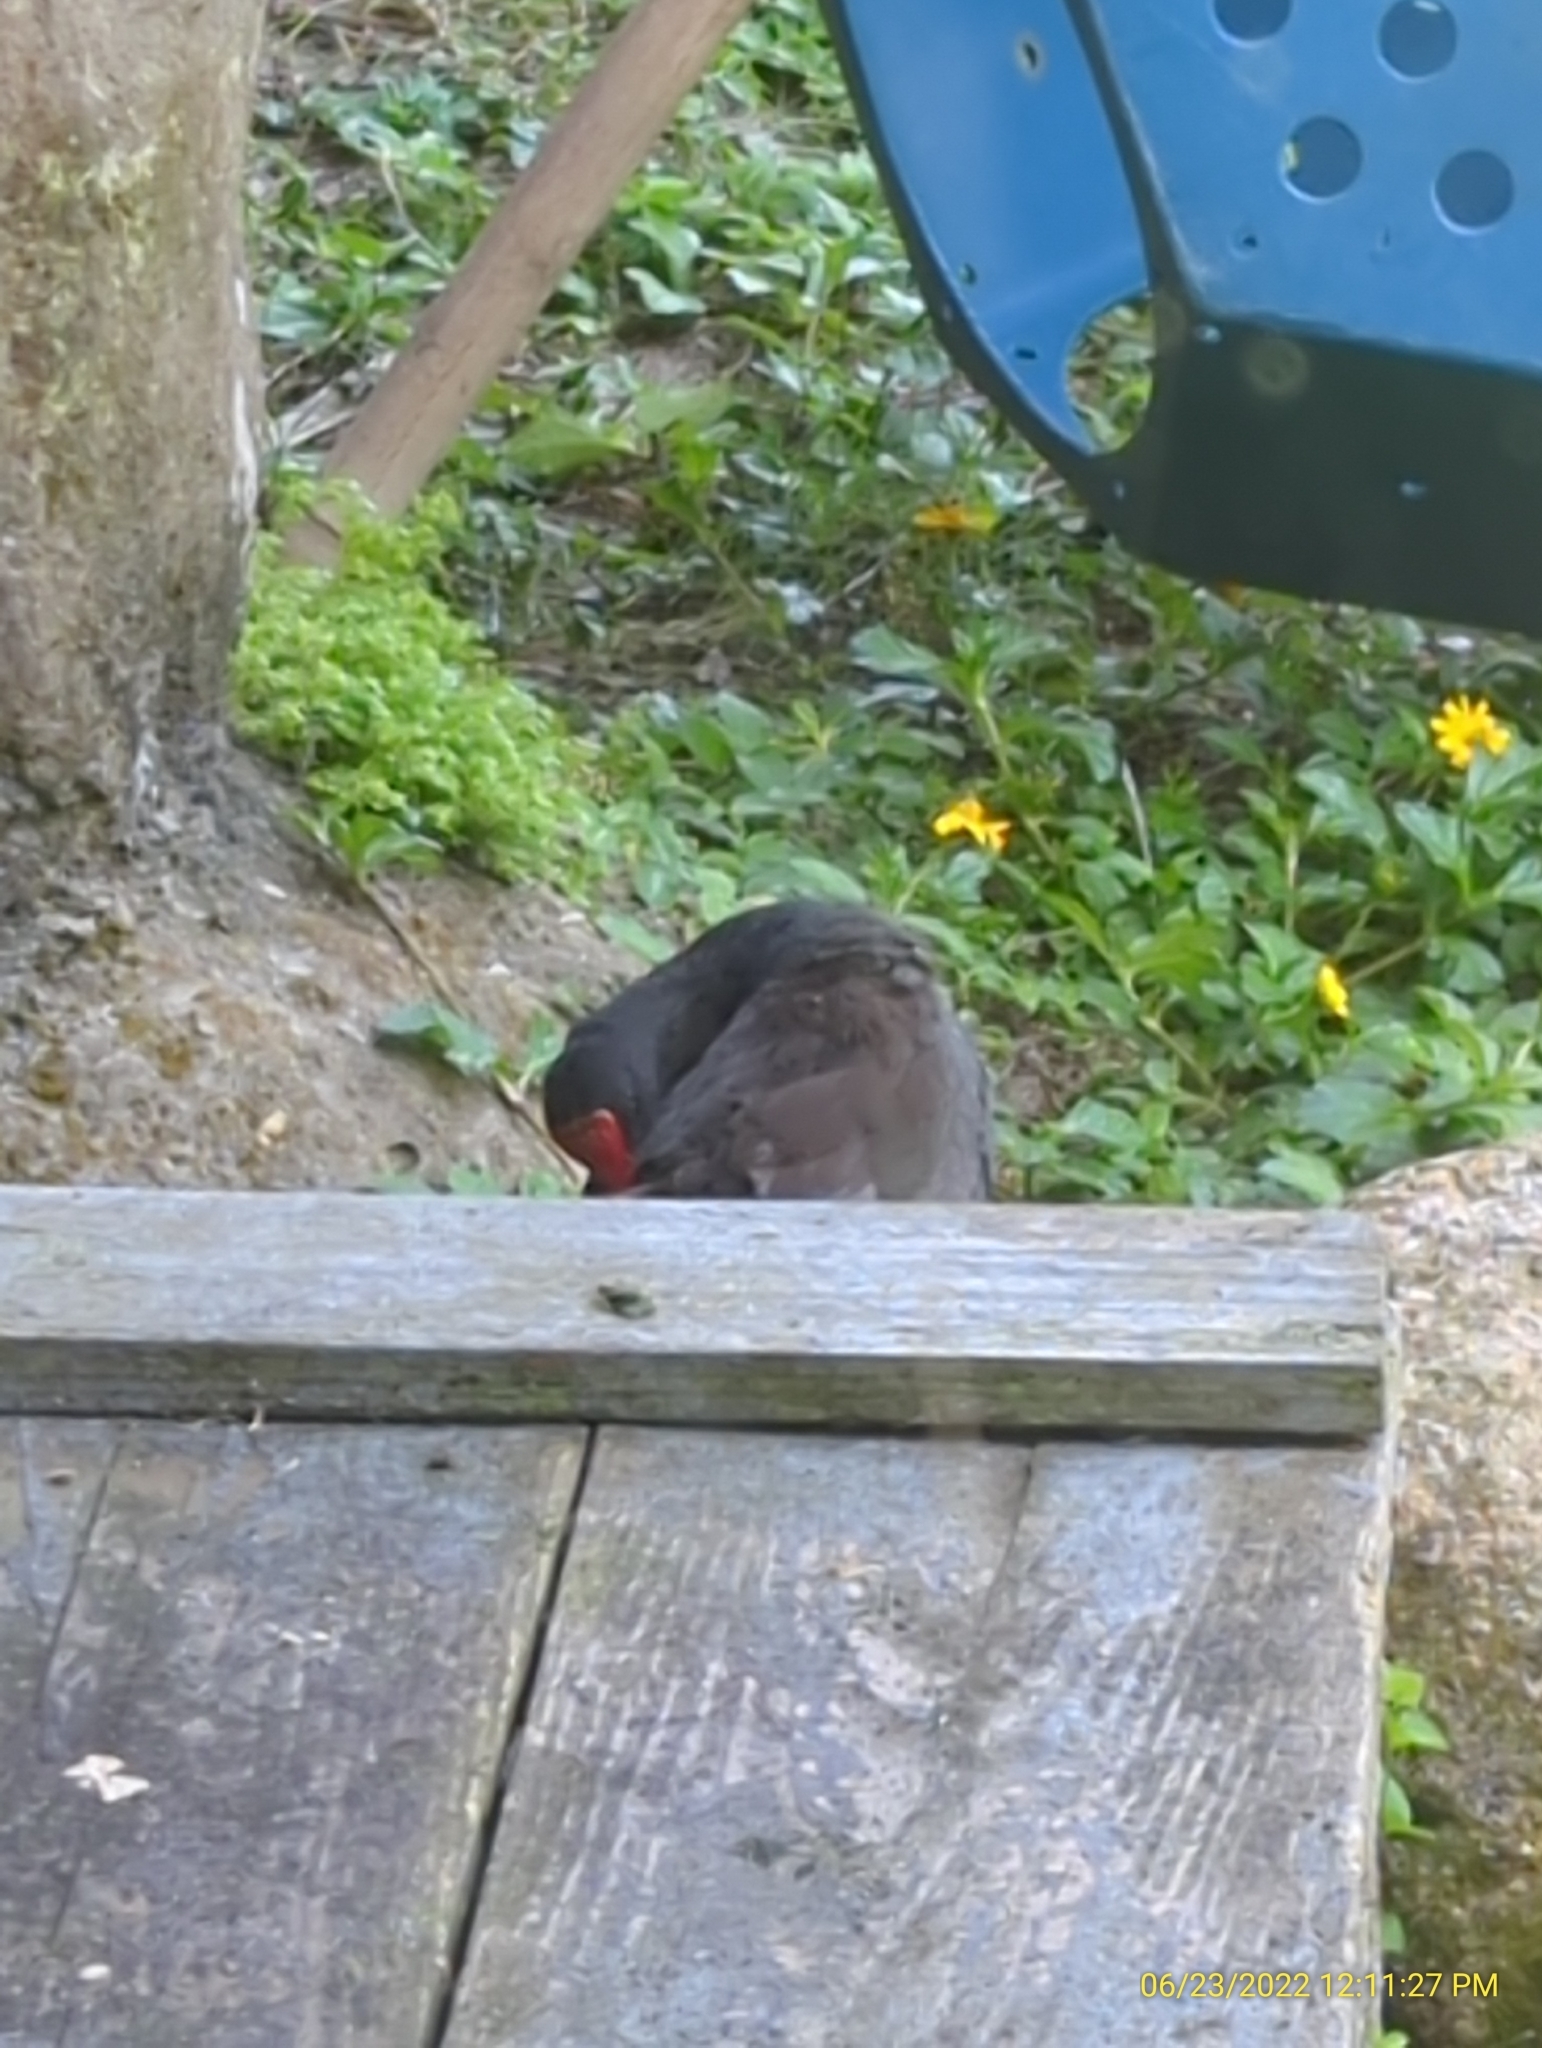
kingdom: Animalia
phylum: Chordata
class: Aves
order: Gruiformes
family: Rallidae
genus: Gallinula
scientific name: Gallinula chloropus
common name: Common moorhen
